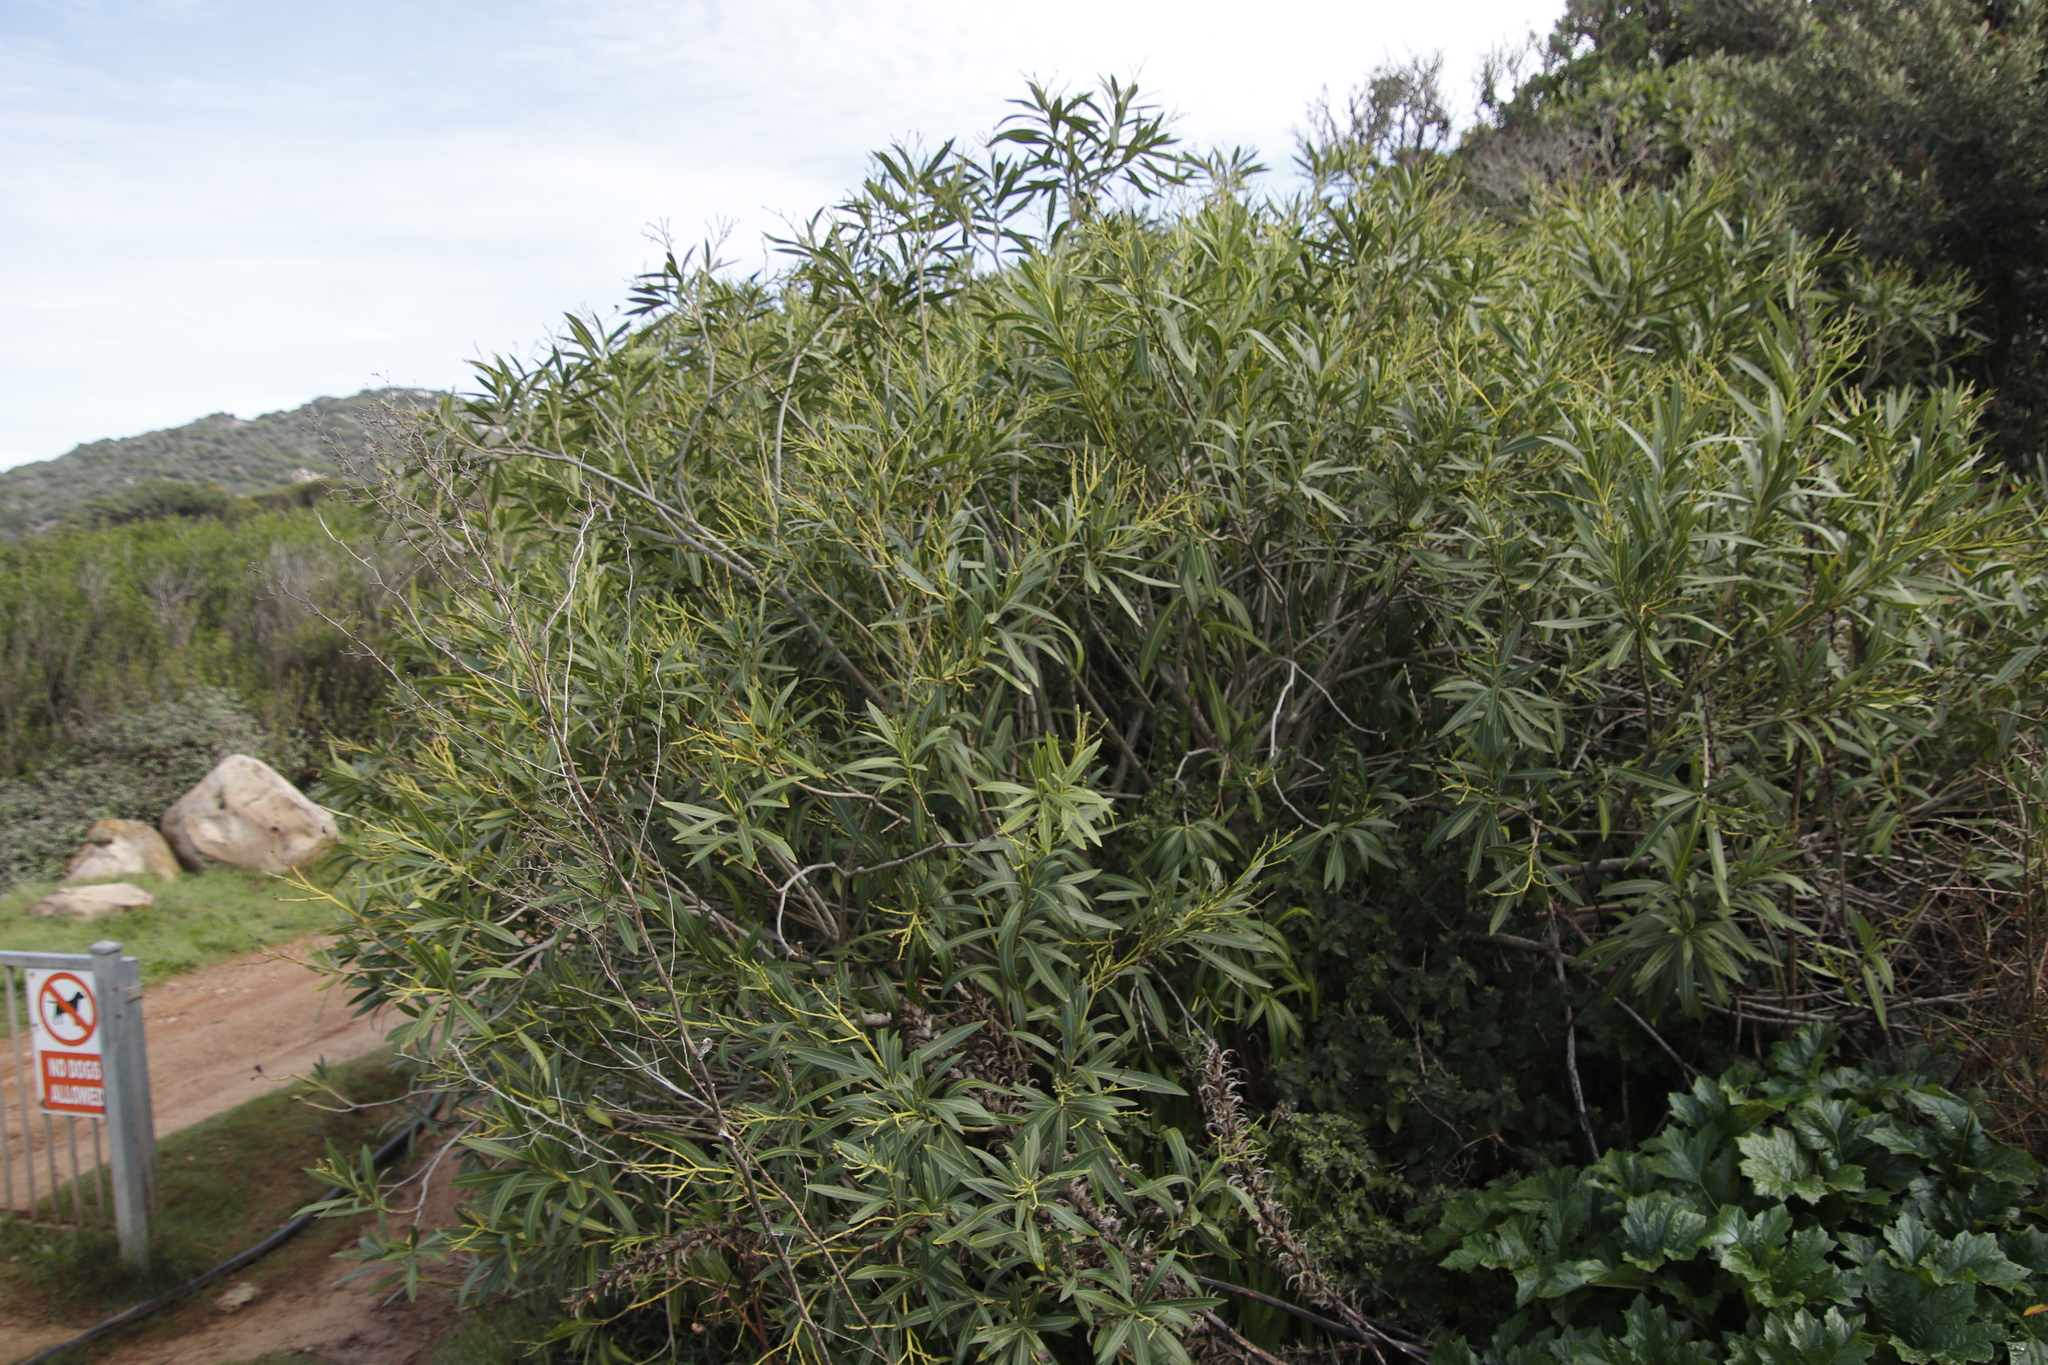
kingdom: Plantae
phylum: Tracheophyta
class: Magnoliopsida
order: Gentianales
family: Apocynaceae
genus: Nerium
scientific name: Nerium oleander
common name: Oleander
